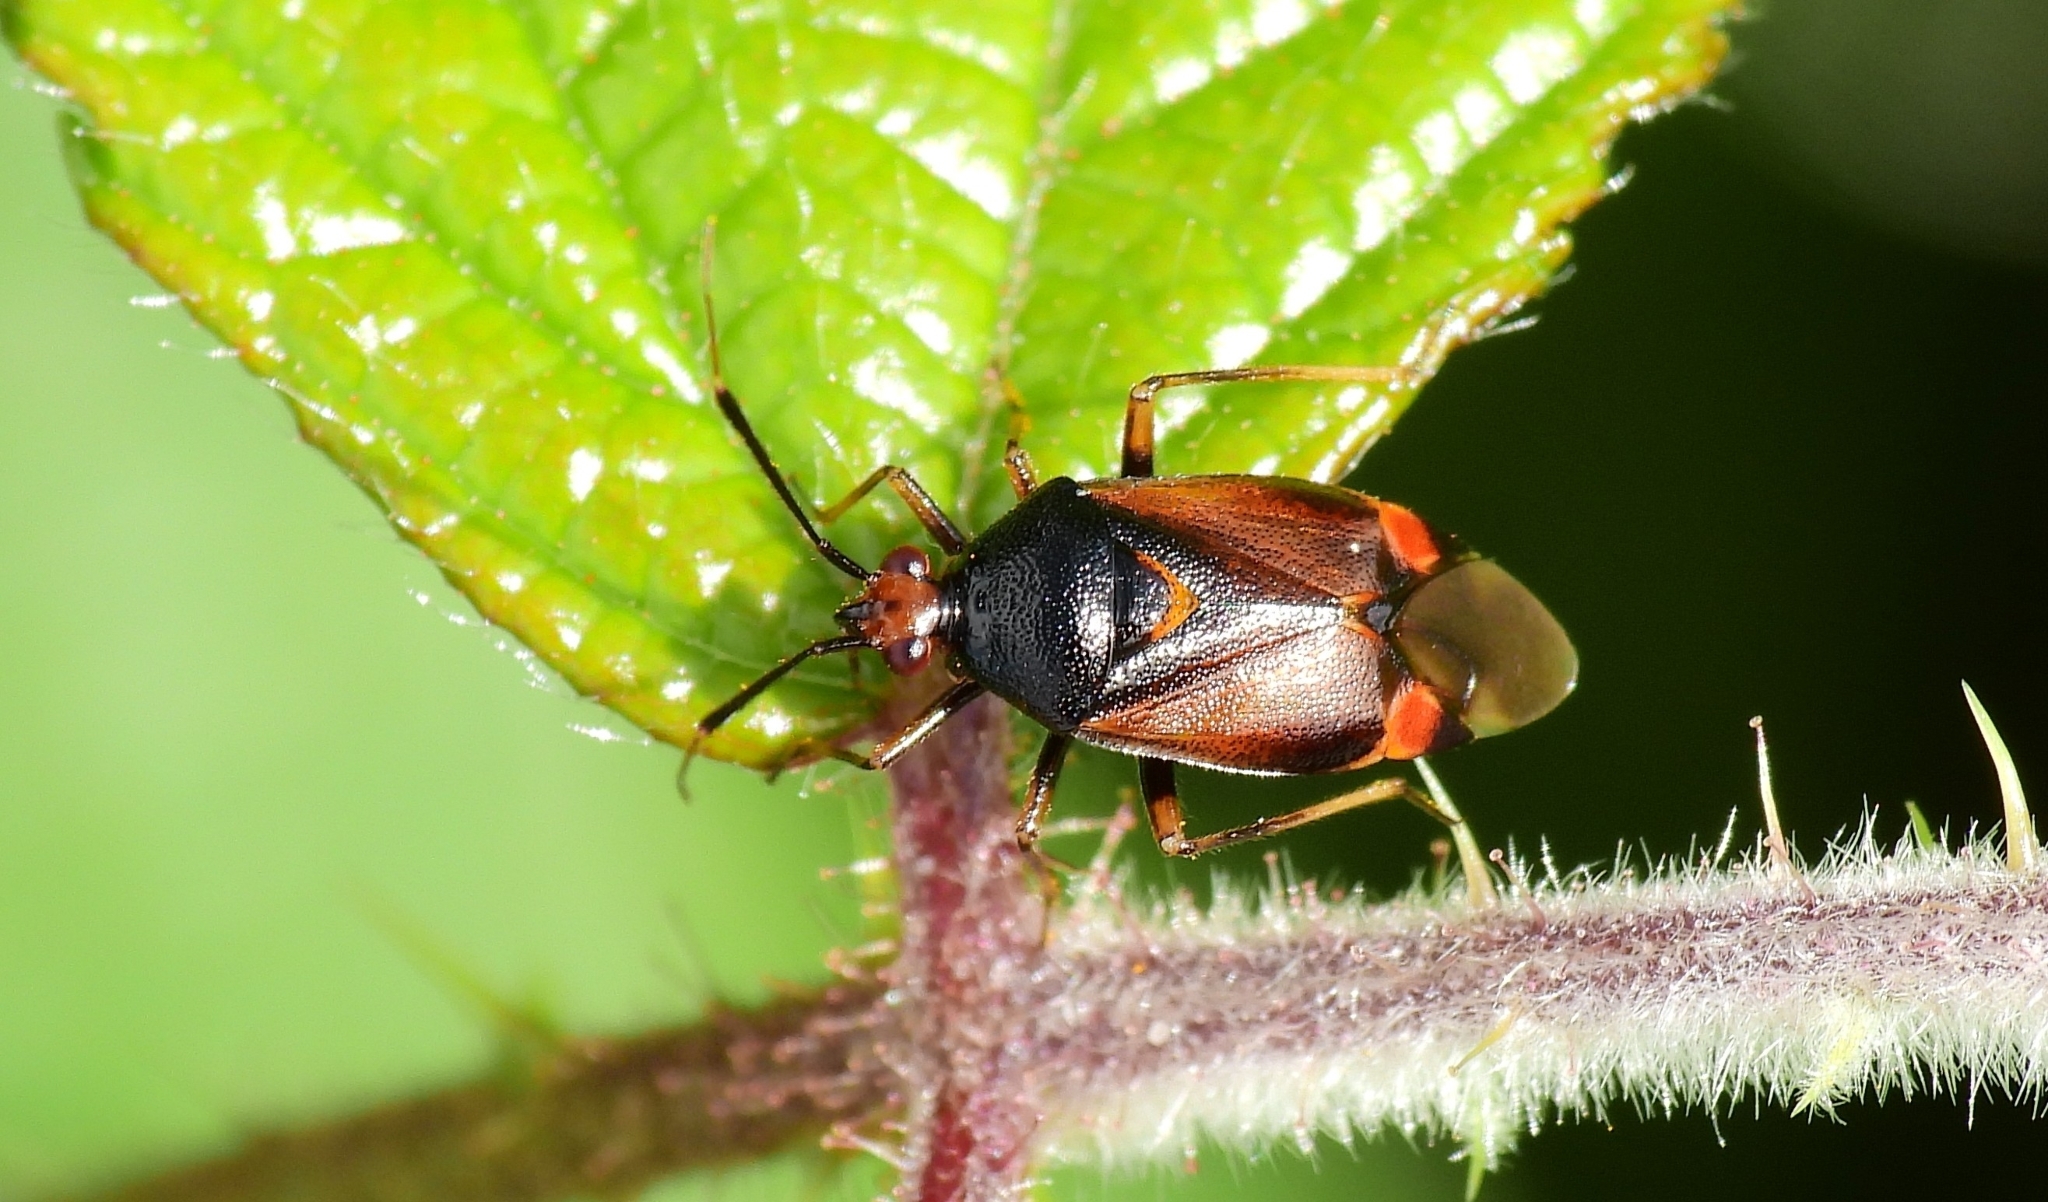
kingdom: Animalia
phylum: Arthropoda
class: Insecta
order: Hemiptera
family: Miridae
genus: Deraeocoris
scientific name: Deraeocoris ruber
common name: Plant bug
